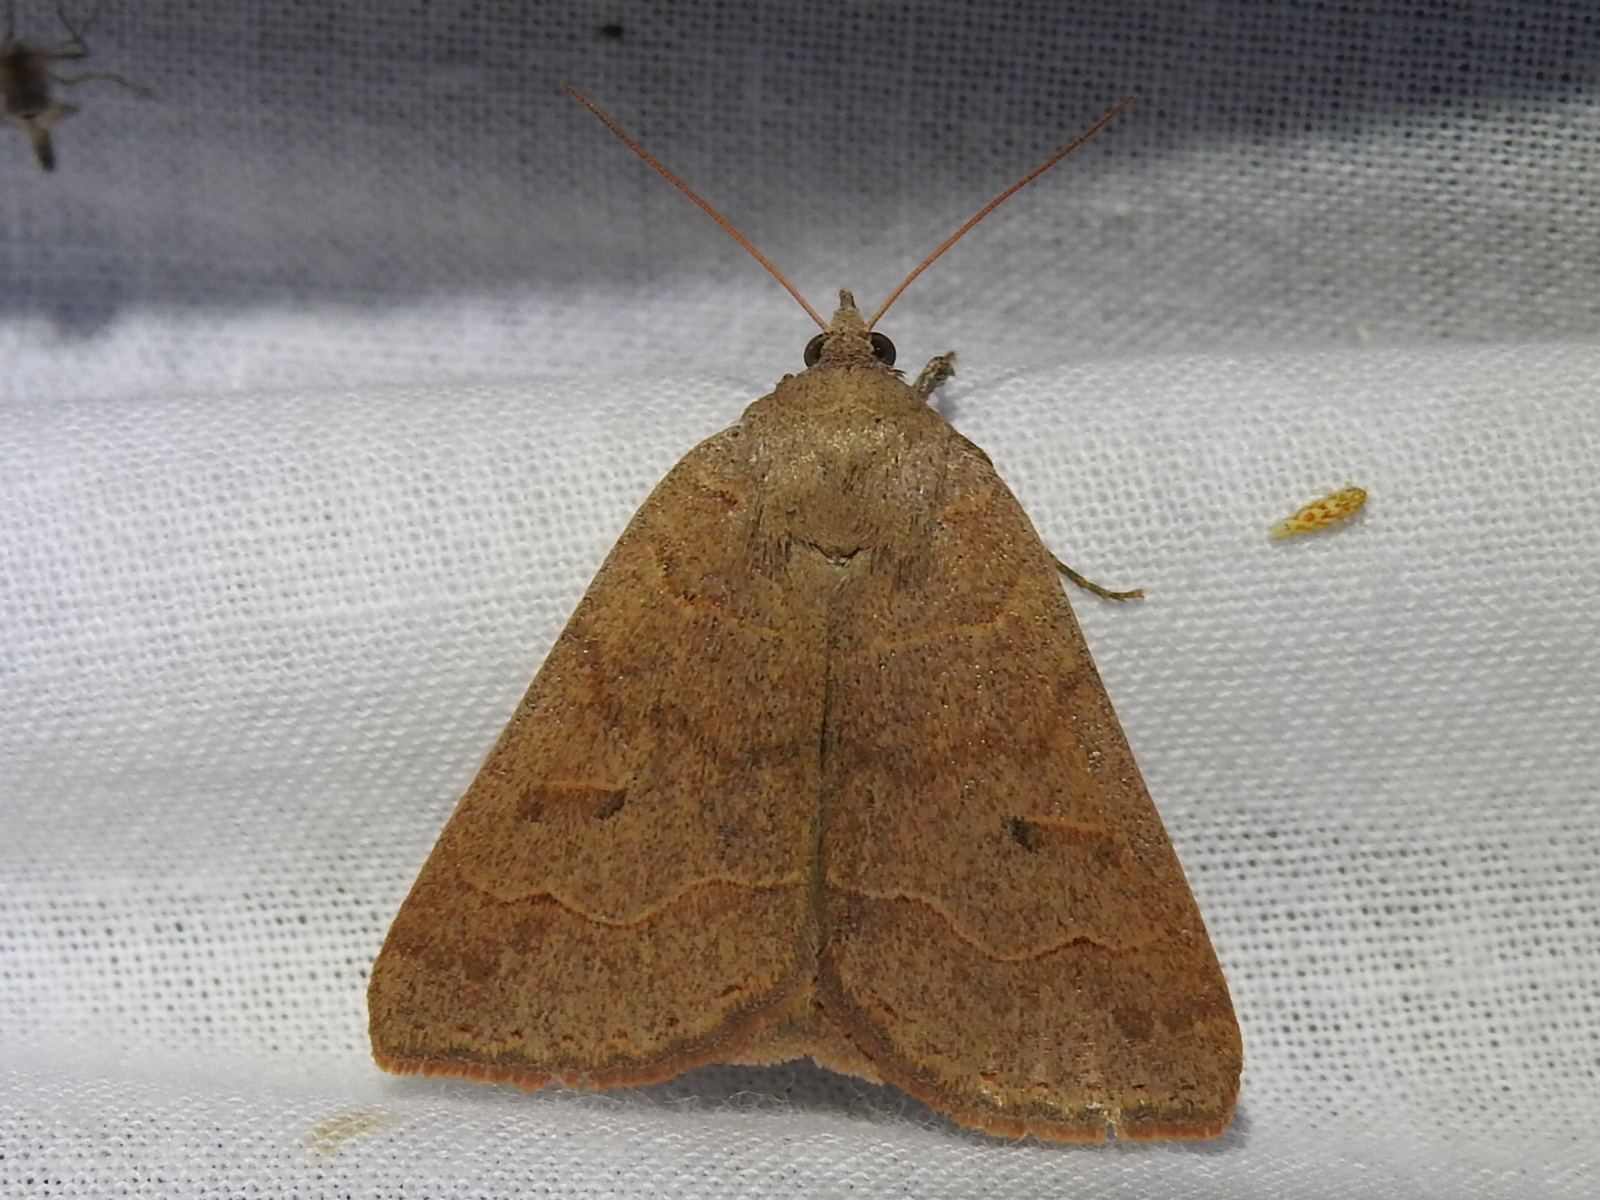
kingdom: Animalia
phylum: Arthropoda
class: Insecta
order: Lepidoptera
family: Erebidae
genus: Phoberia
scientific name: Phoberia atomaris
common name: Common oak moth
